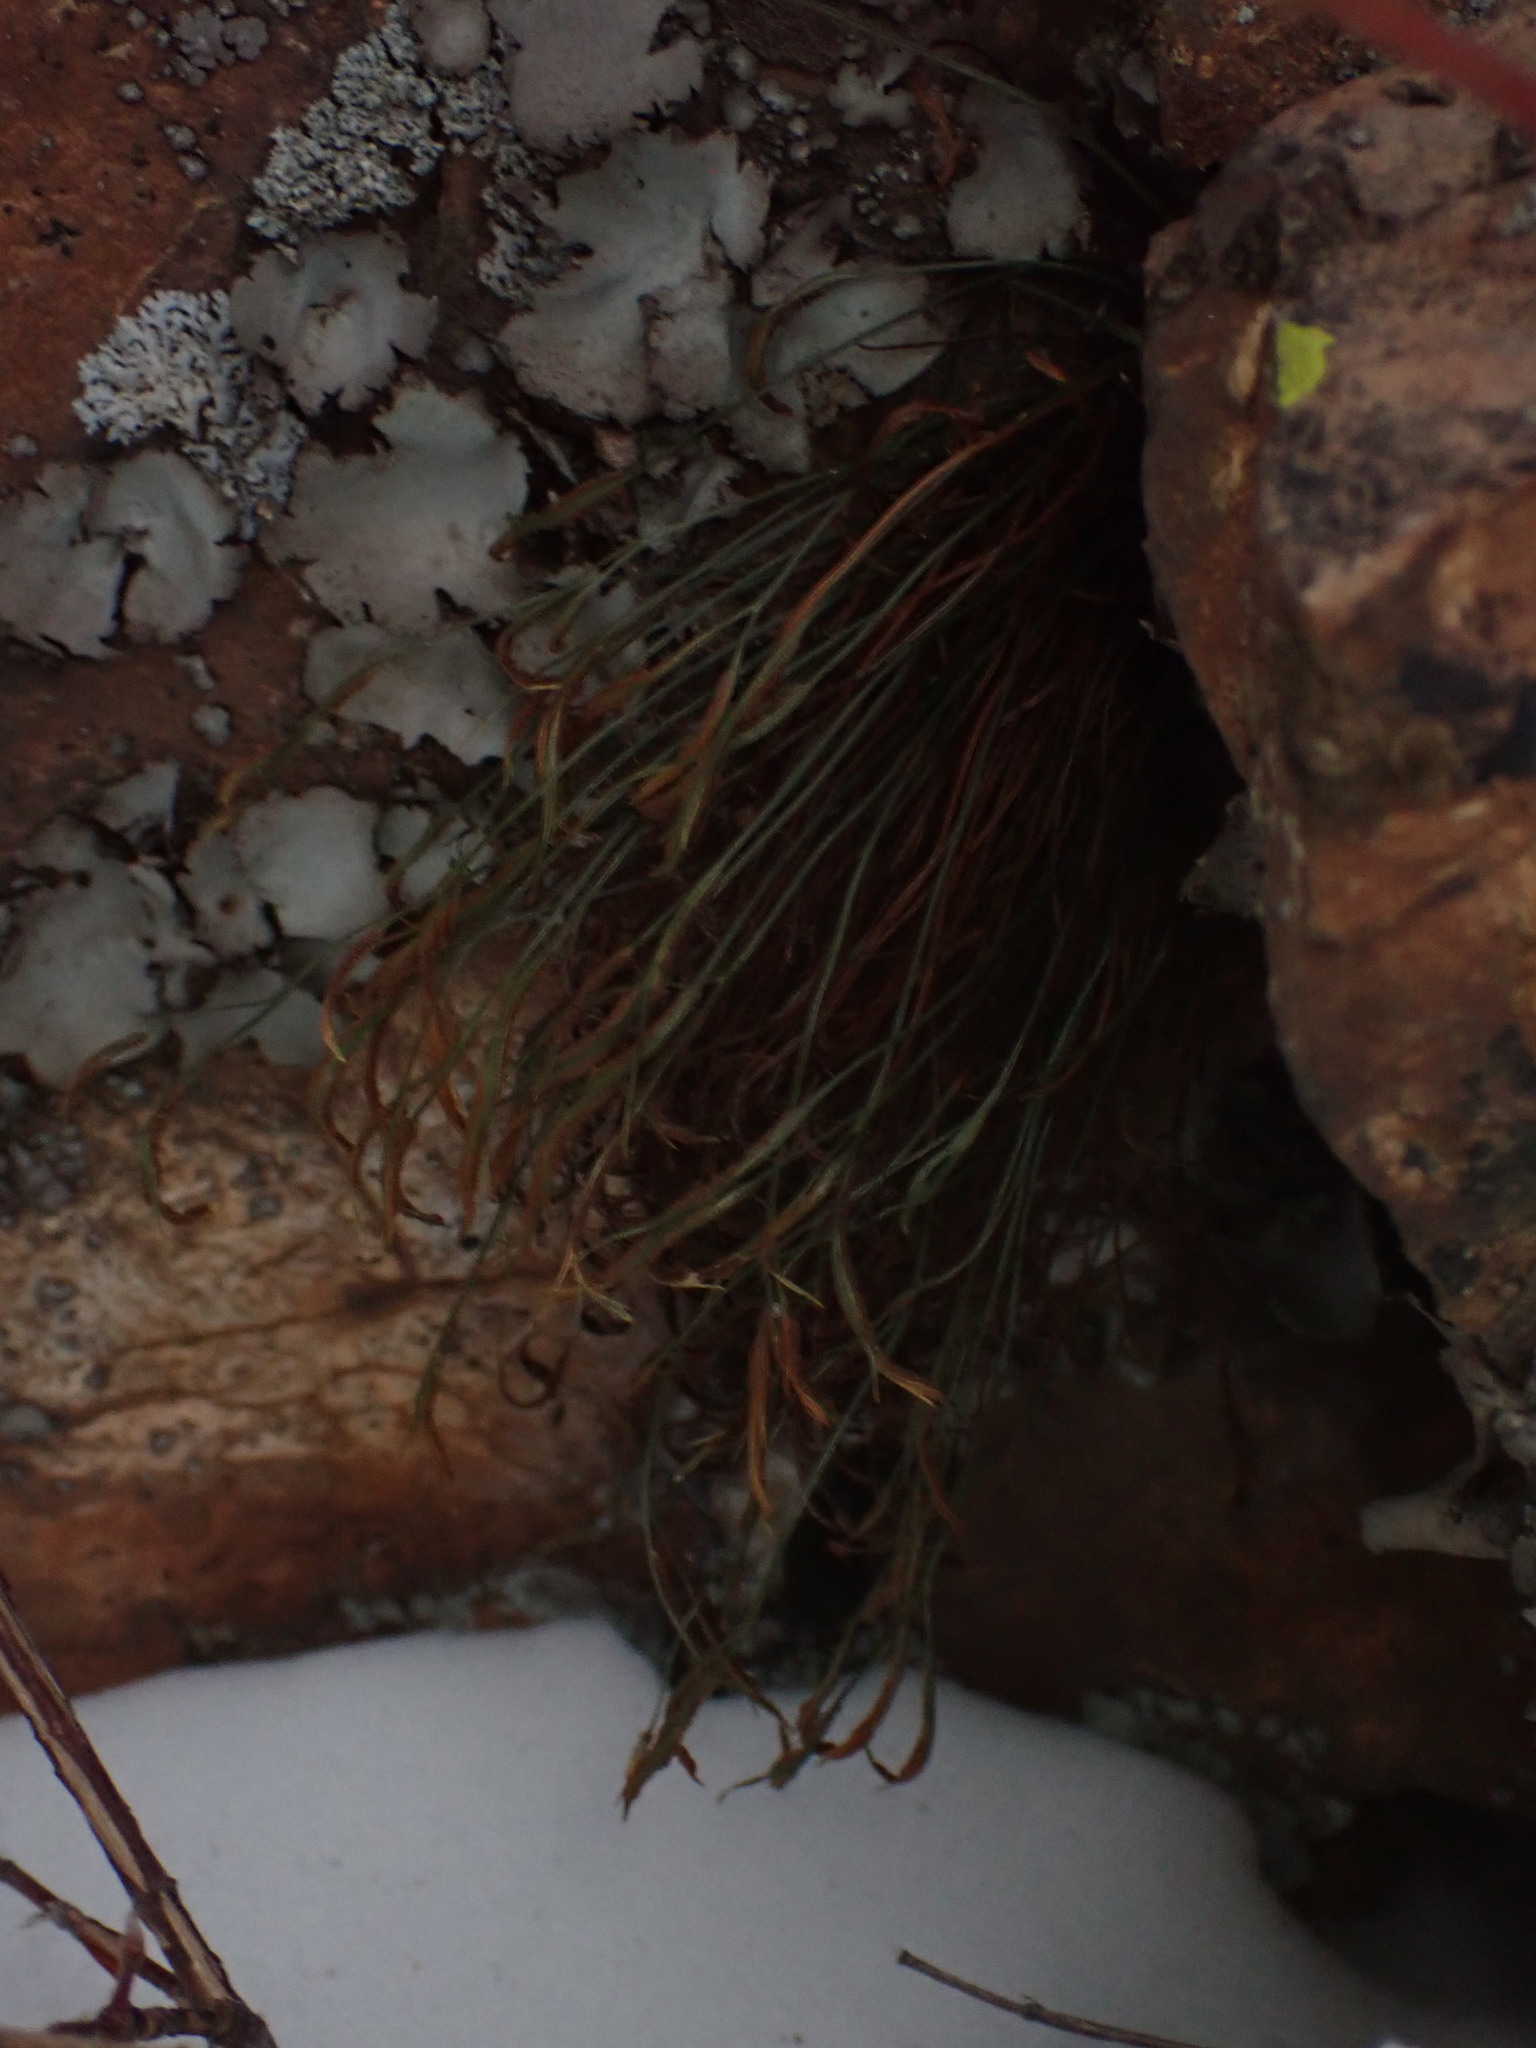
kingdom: Plantae
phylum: Tracheophyta
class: Polypodiopsida
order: Polypodiales
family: Aspleniaceae
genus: Asplenium
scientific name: Asplenium septentrionale
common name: Forked spleenwort
